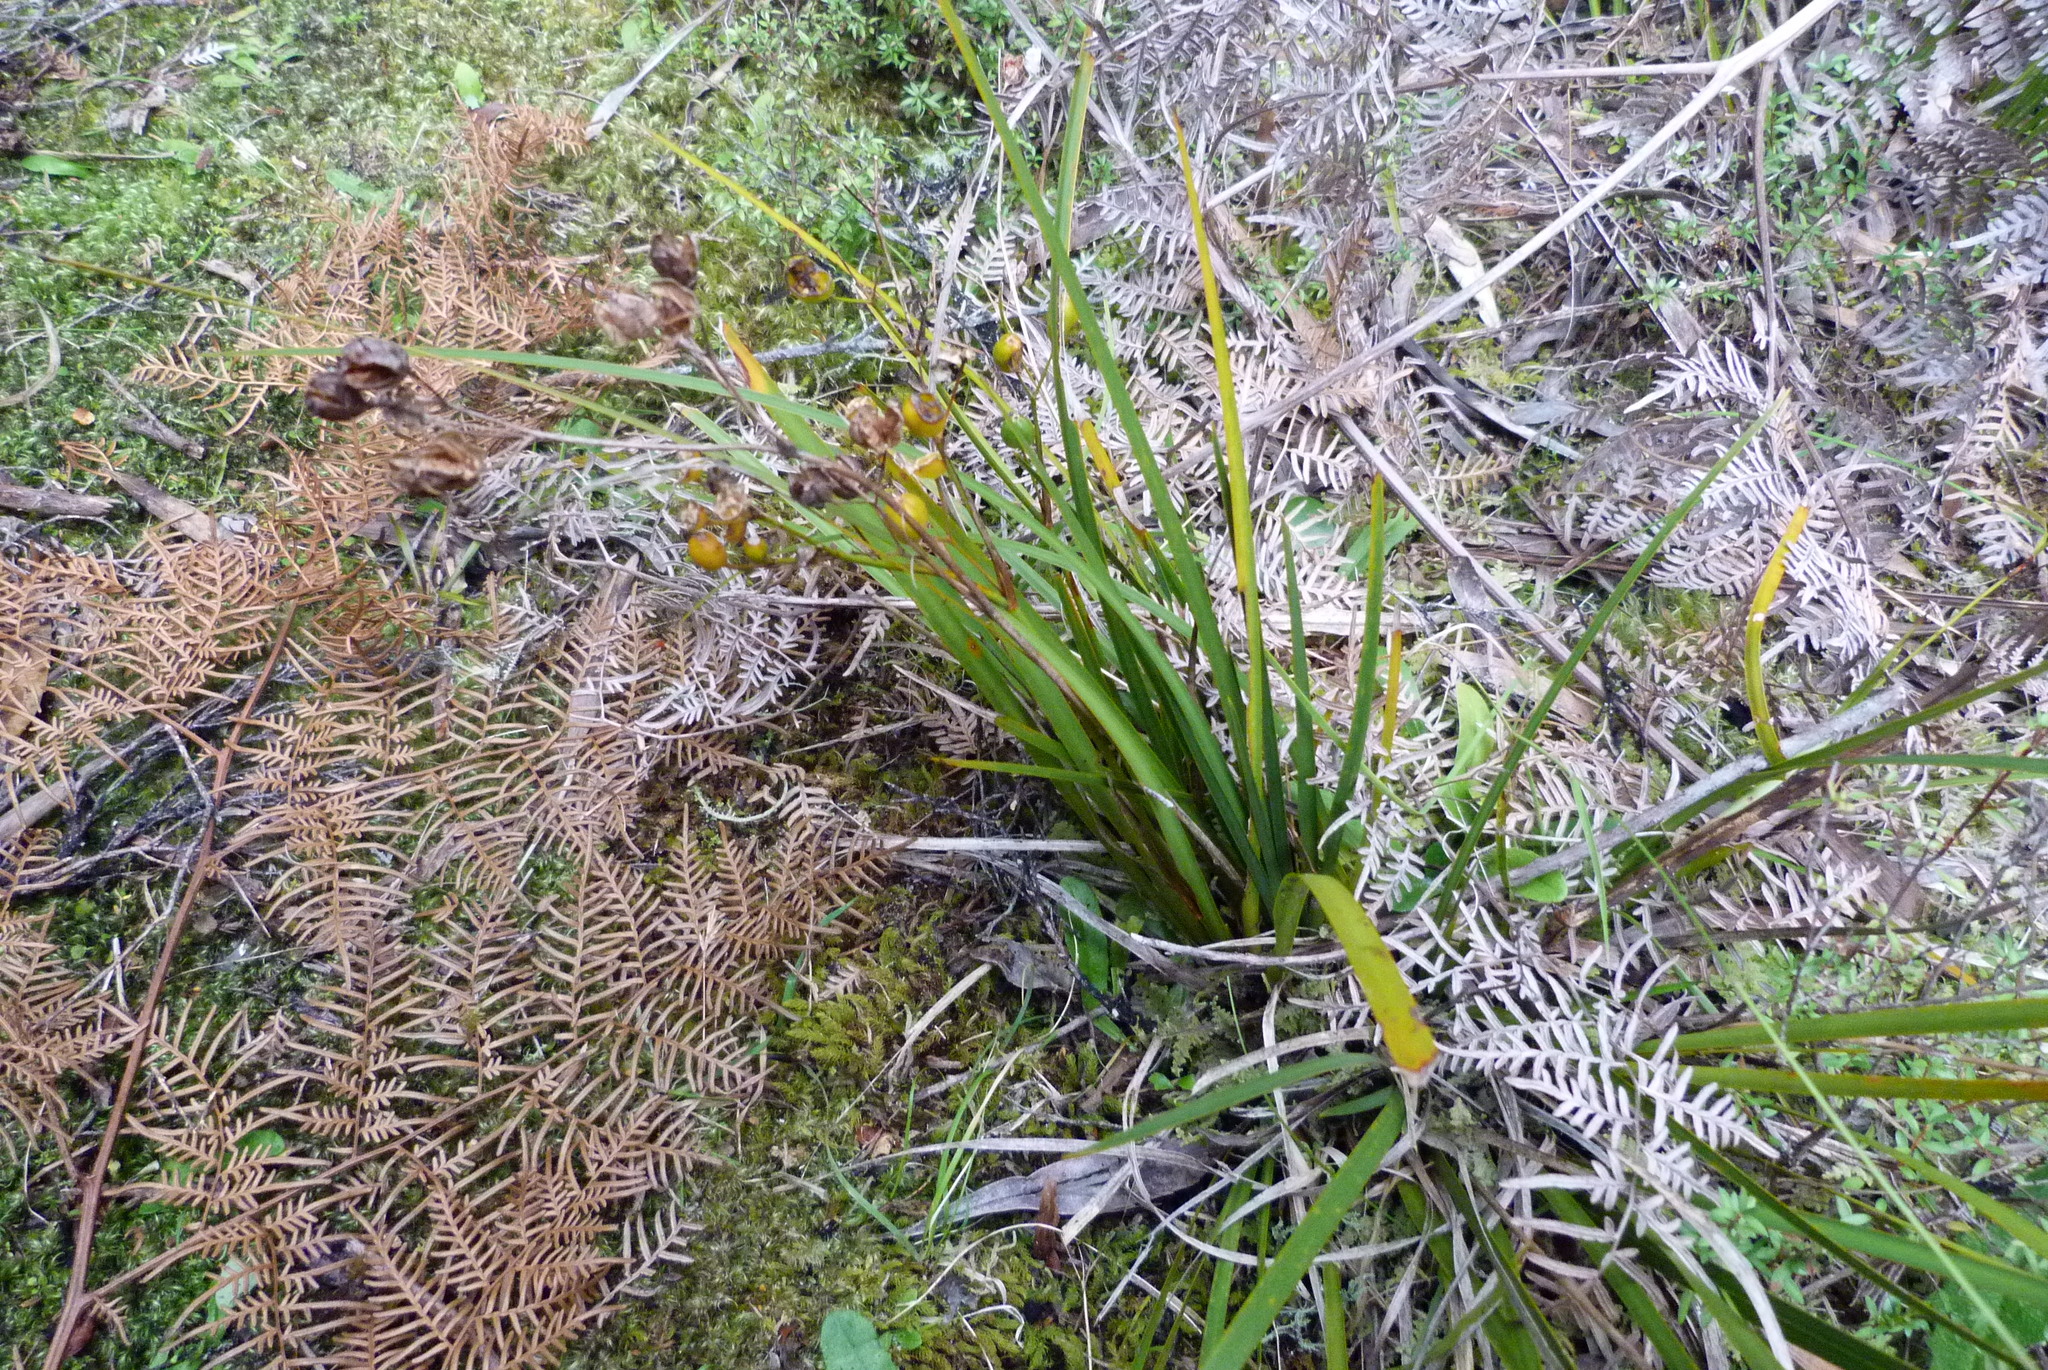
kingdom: Plantae
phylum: Tracheophyta
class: Liliopsida
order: Asparagales
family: Iridaceae
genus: Libertia
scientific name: Libertia ixioides
